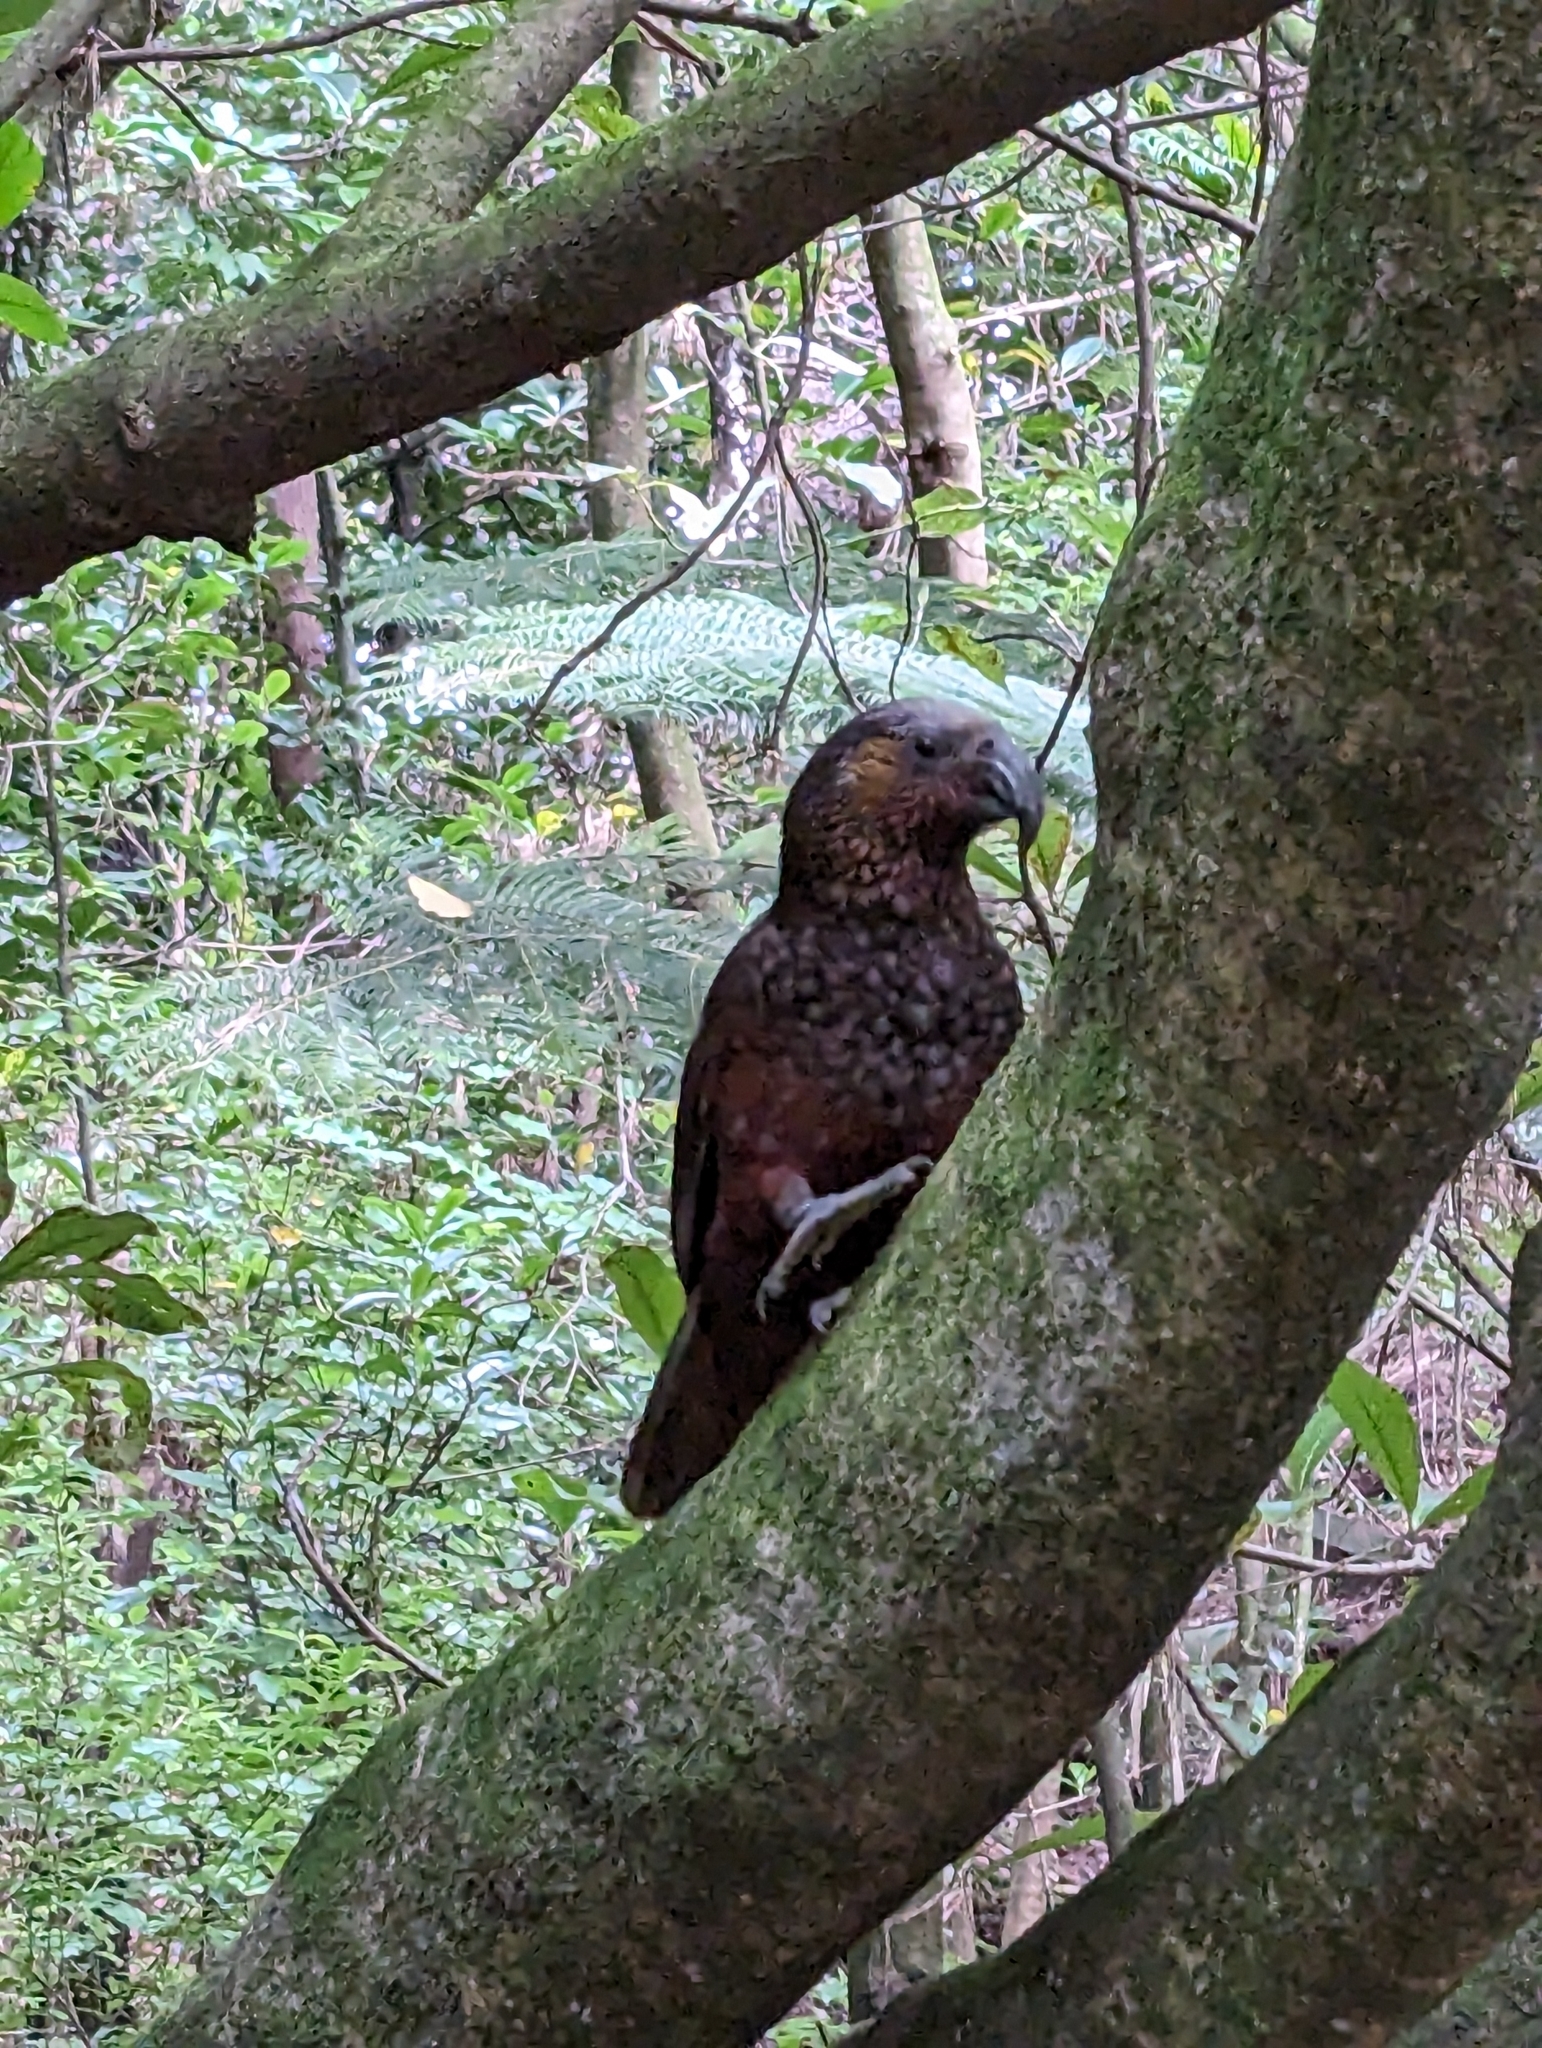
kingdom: Animalia
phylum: Chordata
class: Aves
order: Psittaciformes
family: Psittacidae
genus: Nestor
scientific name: Nestor meridionalis
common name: New zealand kaka
